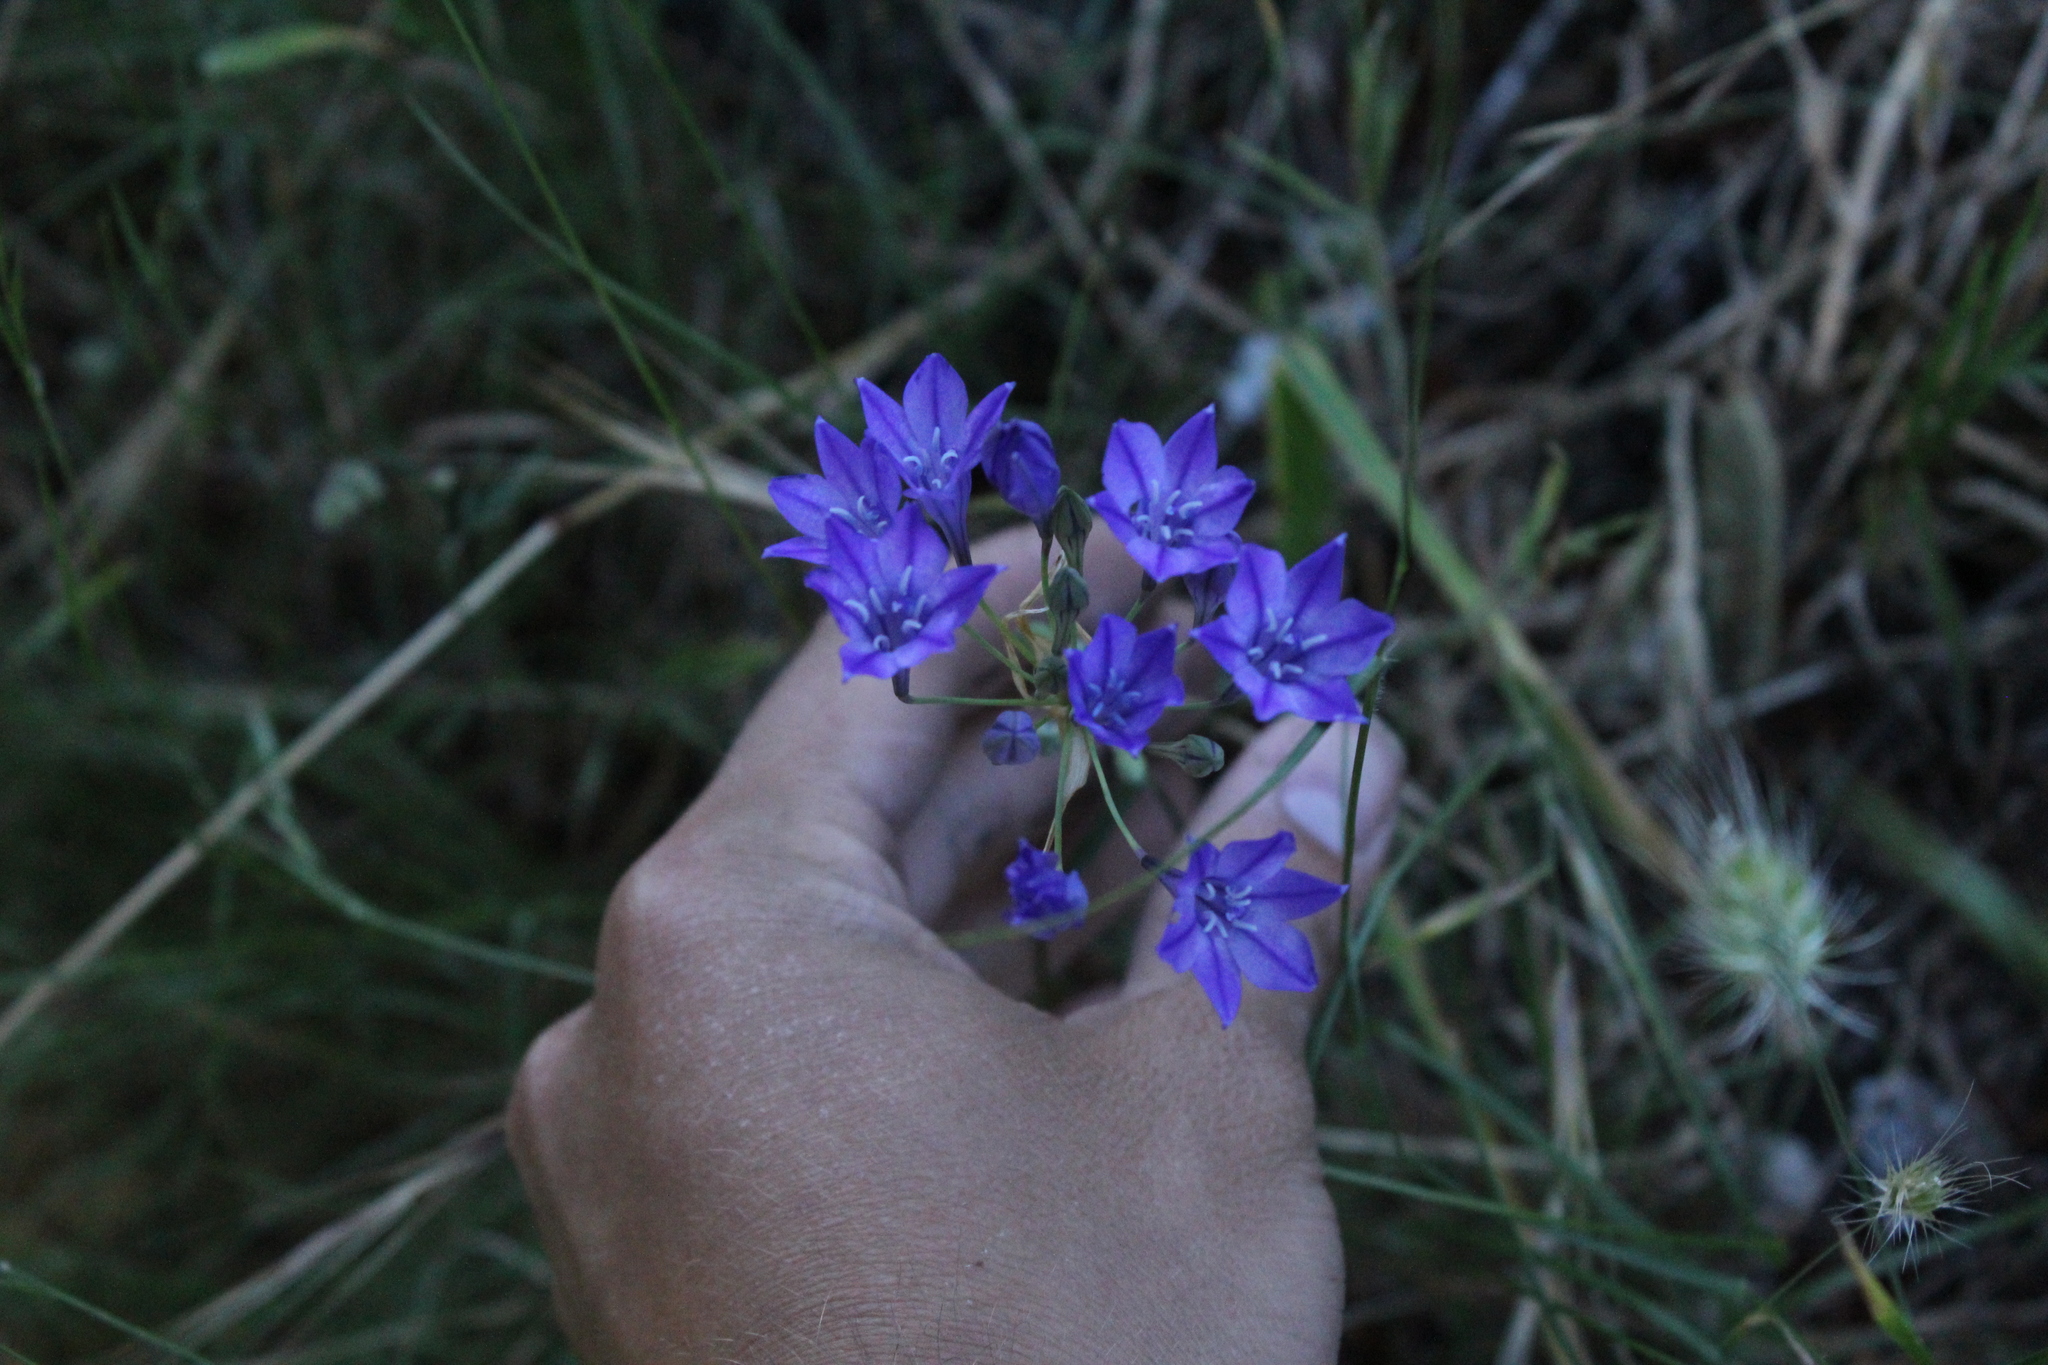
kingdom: Plantae
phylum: Tracheophyta
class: Liliopsida
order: Asparagales
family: Asparagaceae
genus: Triteleia
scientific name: Triteleia laxa
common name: Triplet-lily
